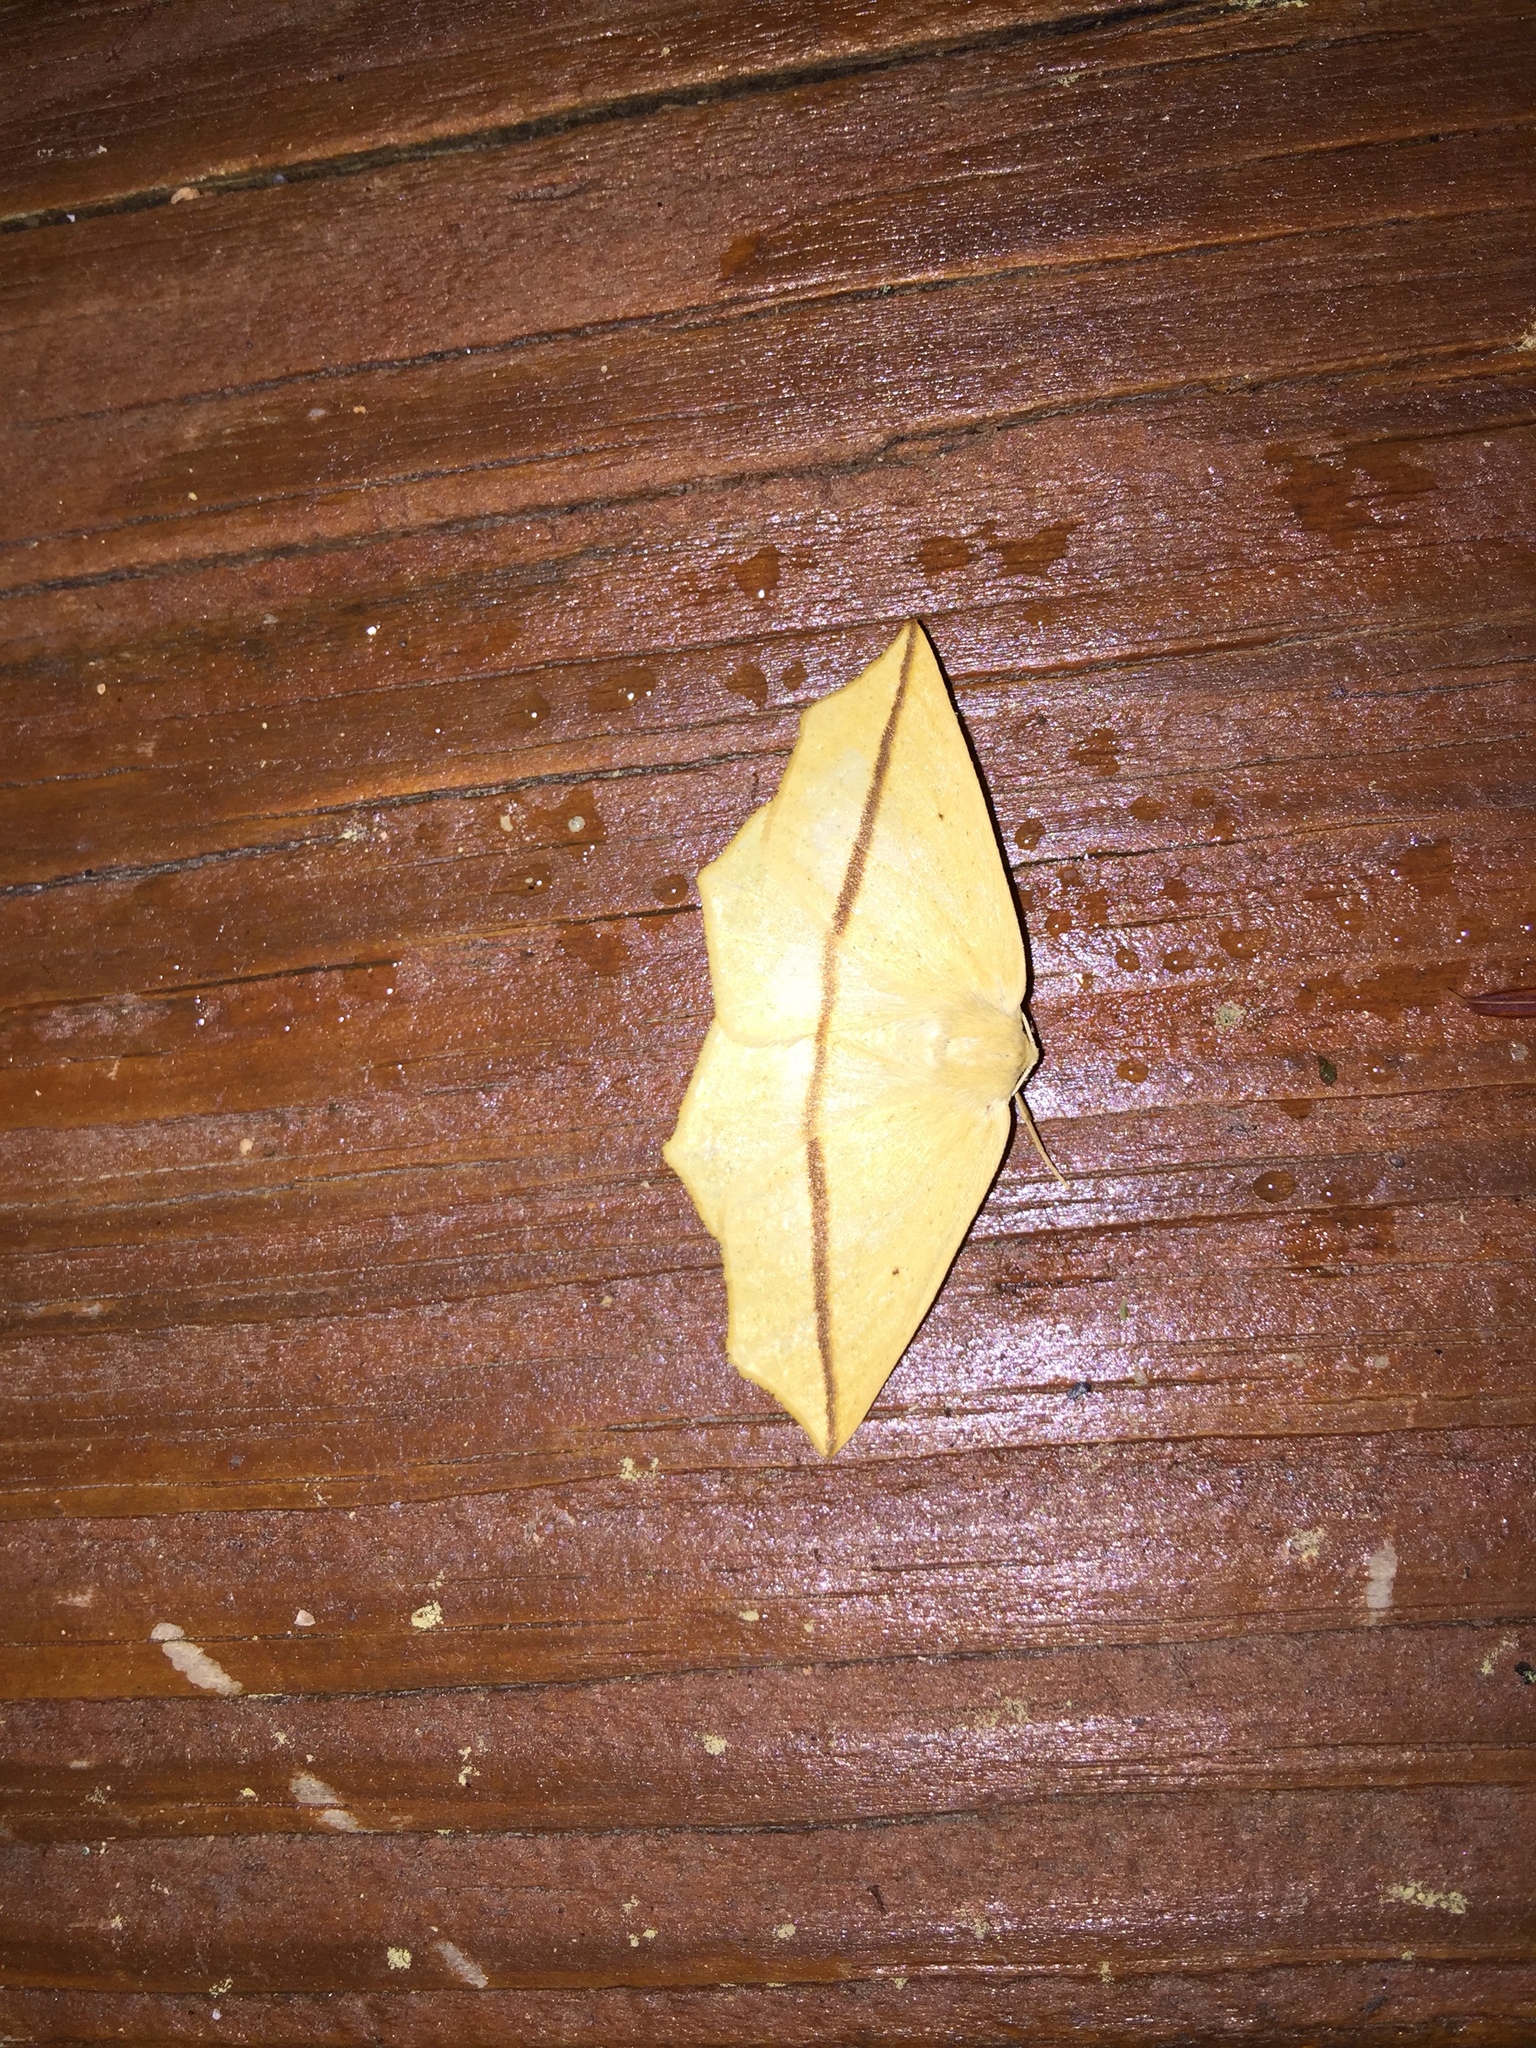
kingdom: Animalia
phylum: Arthropoda
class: Insecta
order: Lepidoptera
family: Geometridae
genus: Tetracis
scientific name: Tetracis crocallata
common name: Yellow slant-line
